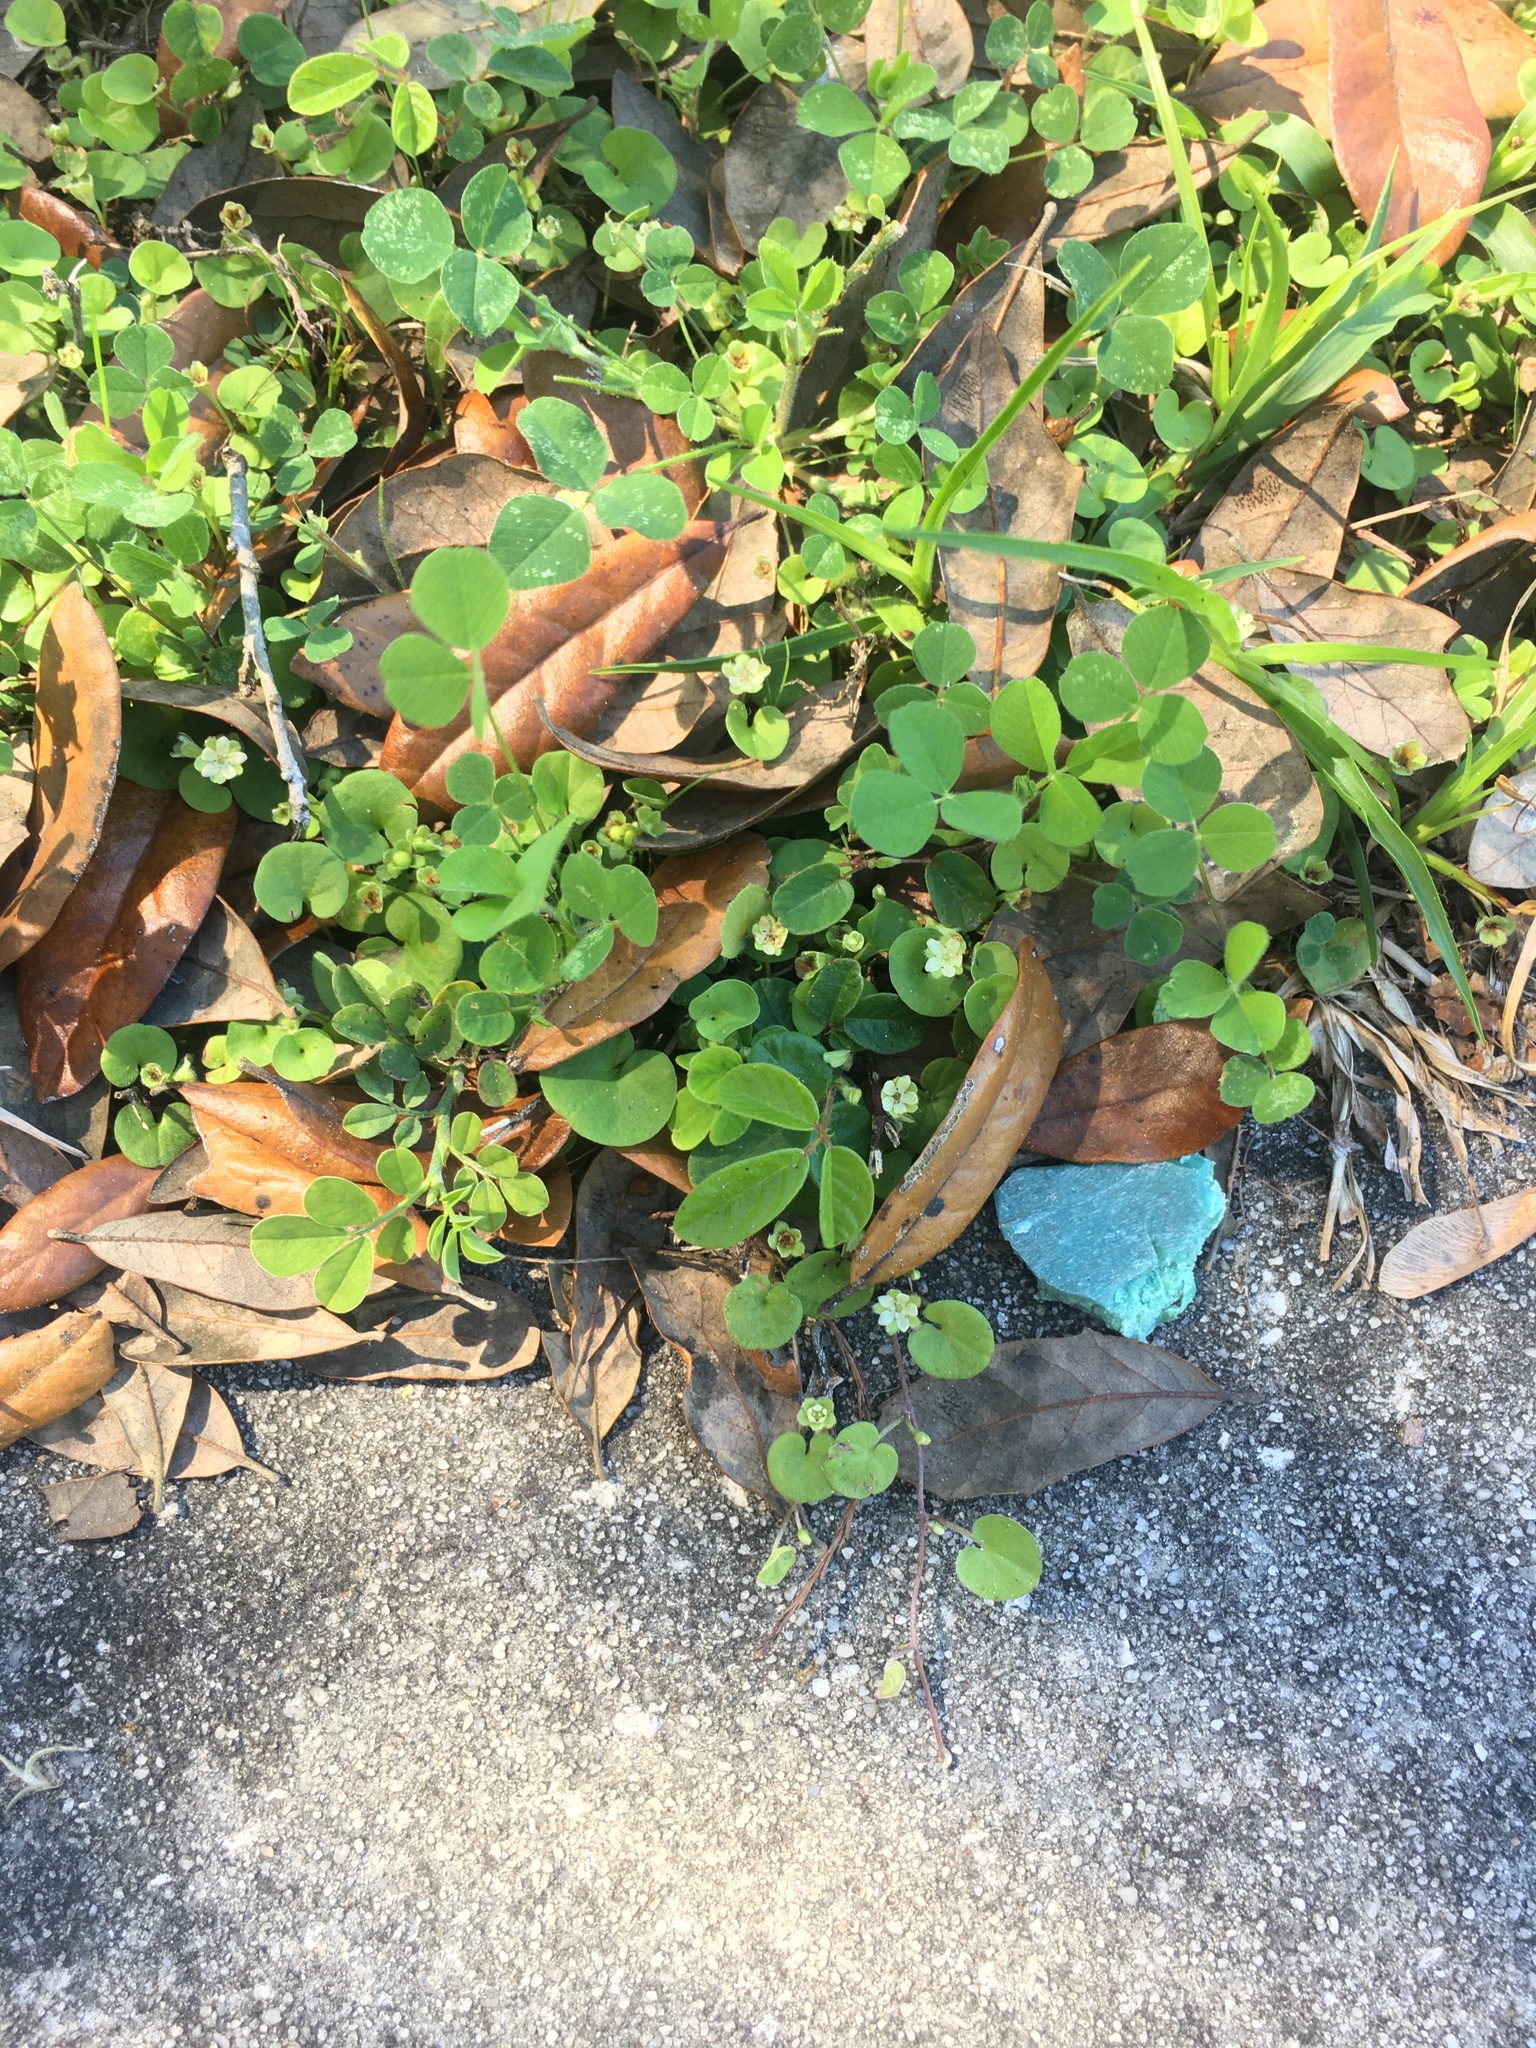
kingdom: Plantae
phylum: Tracheophyta
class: Magnoliopsida
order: Solanales
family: Convolvulaceae
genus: Dichondra
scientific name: Dichondra carolinensis
